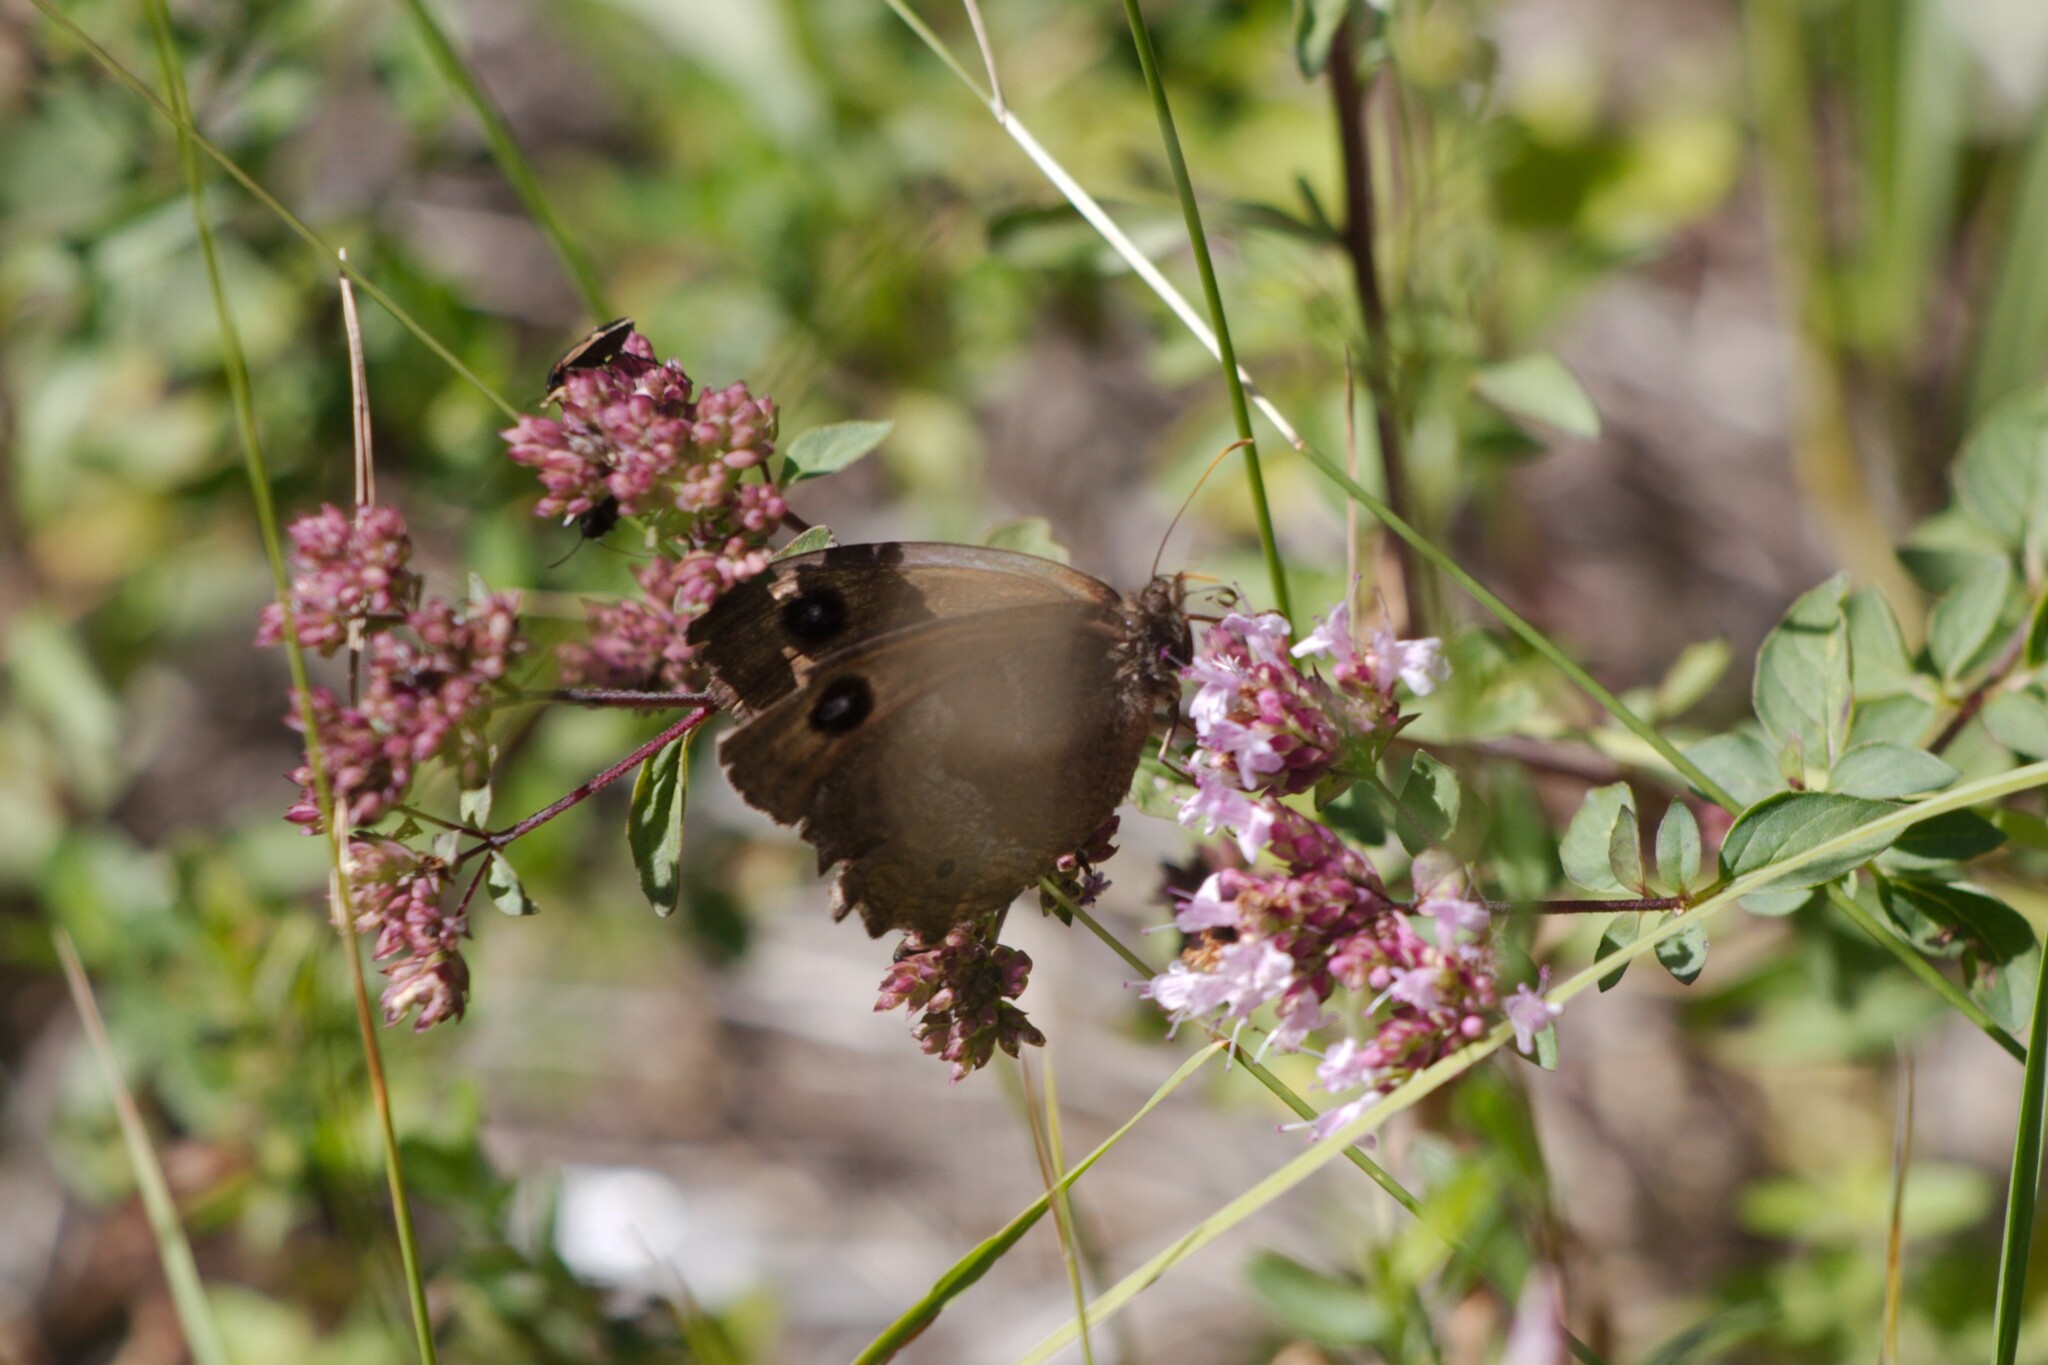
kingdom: Animalia
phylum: Arthropoda
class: Insecta
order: Lepidoptera
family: Nymphalidae
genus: Minois
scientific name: Minois dryas
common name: Dryad
